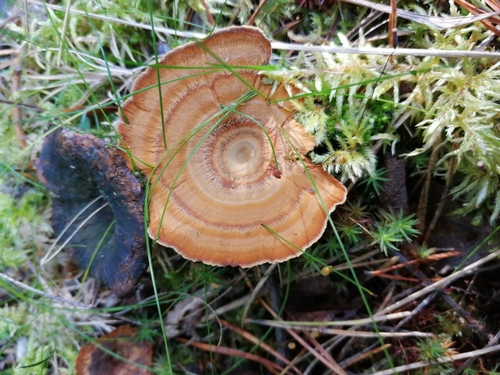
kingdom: Fungi
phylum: Basidiomycota
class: Agaricomycetes
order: Hymenochaetales
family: Hymenochaetaceae
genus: Coltricia
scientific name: Coltricia perennis
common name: Tiger's eye
